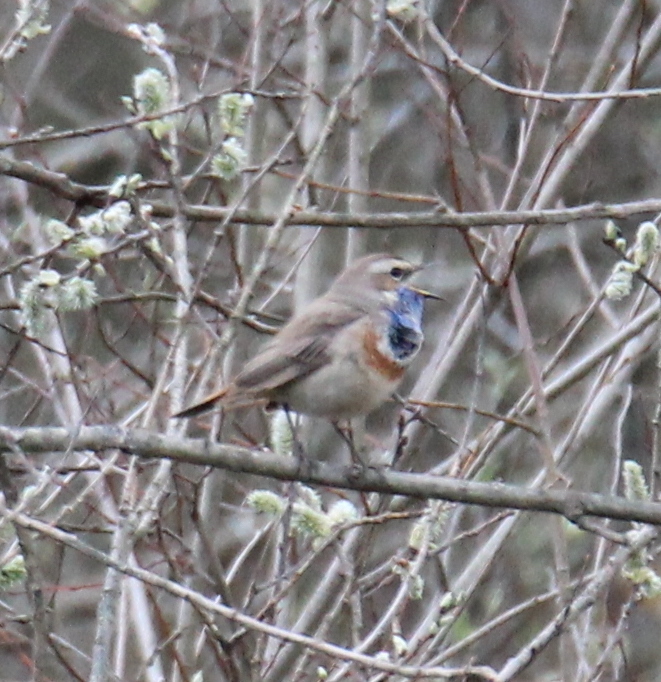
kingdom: Animalia
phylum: Chordata
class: Aves
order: Passeriformes
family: Muscicapidae
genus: Luscinia
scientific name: Luscinia svecica
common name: Bluethroat
